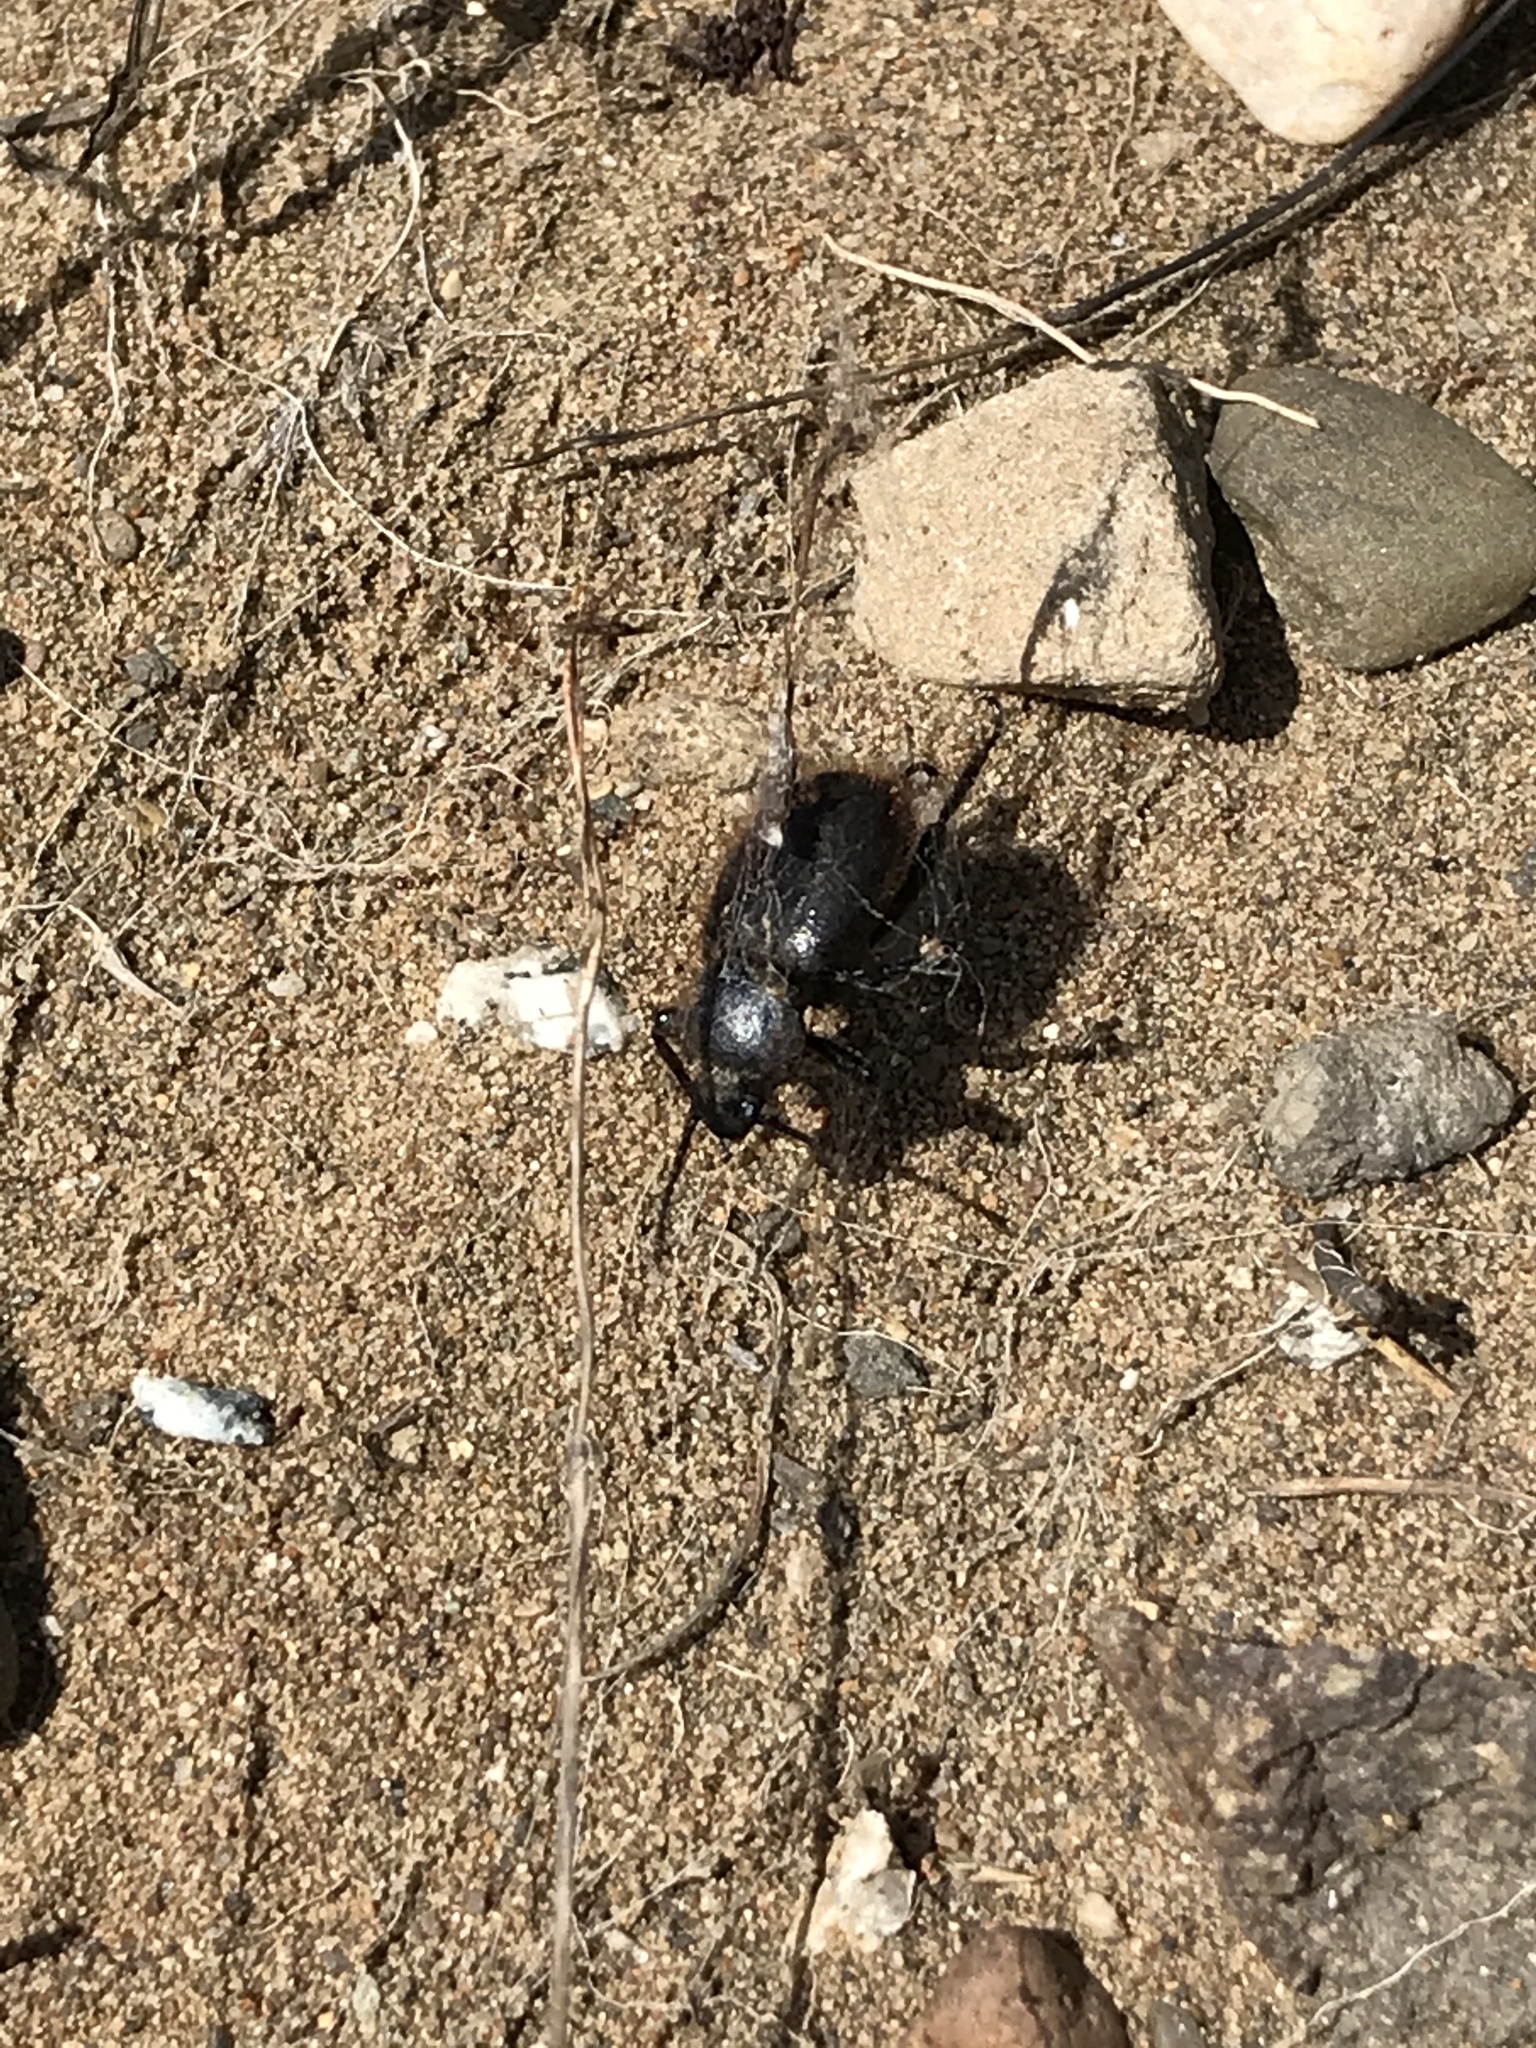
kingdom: Animalia
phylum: Arthropoda
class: Insecta
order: Coleoptera
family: Tenebrionidae
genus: Eleodes
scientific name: Eleodes osculans
